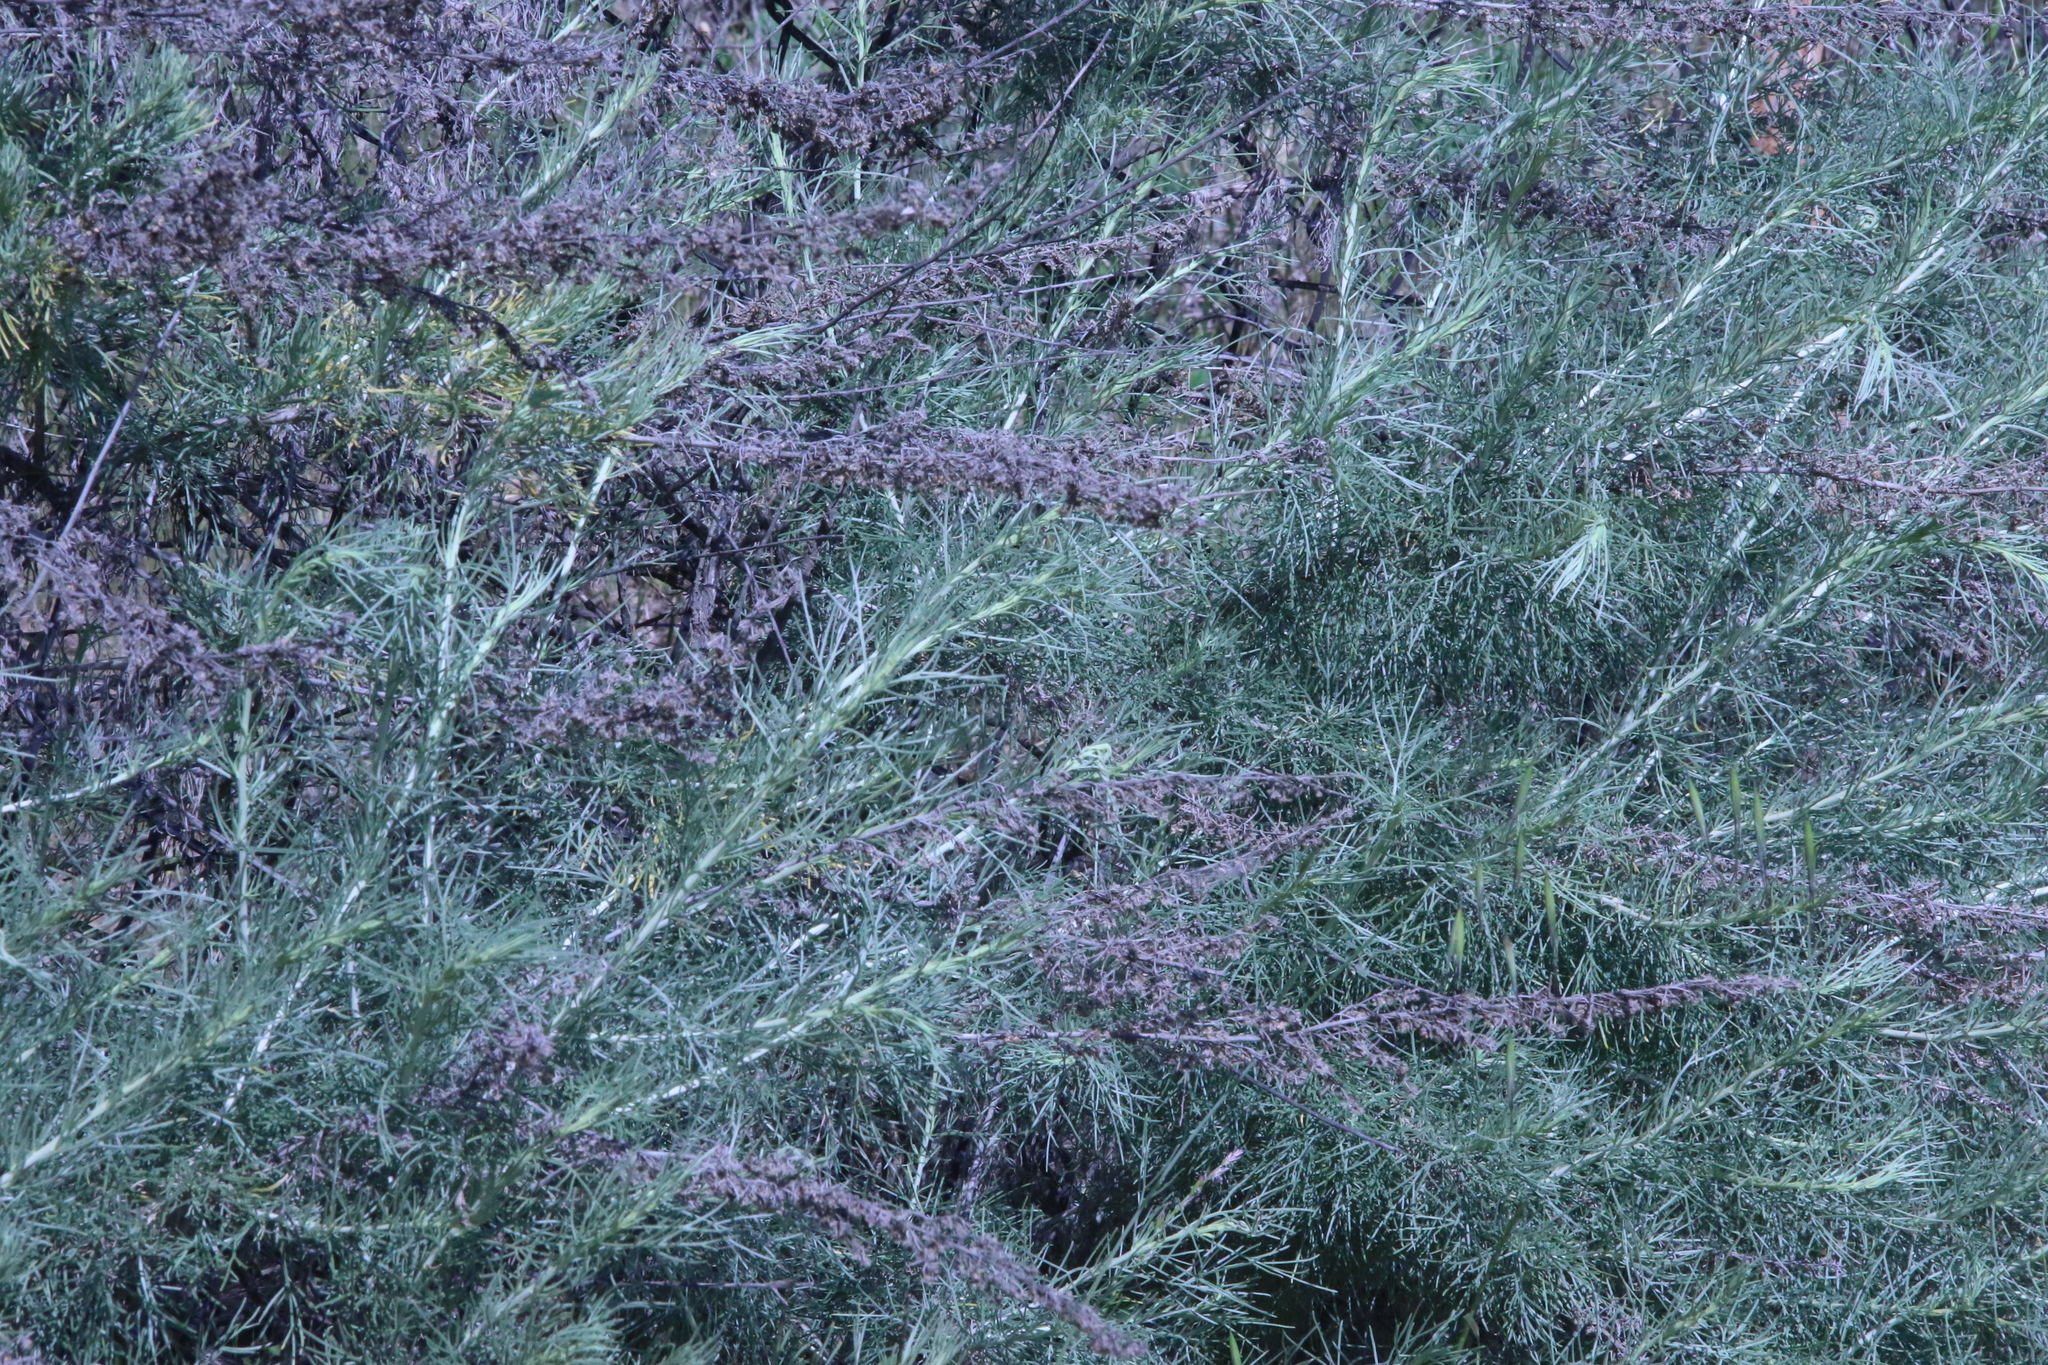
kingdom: Plantae
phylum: Tracheophyta
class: Magnoliopsida
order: Asterales
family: Asteraceae
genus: Artemisia
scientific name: Artemisia californica
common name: California sagebrush
